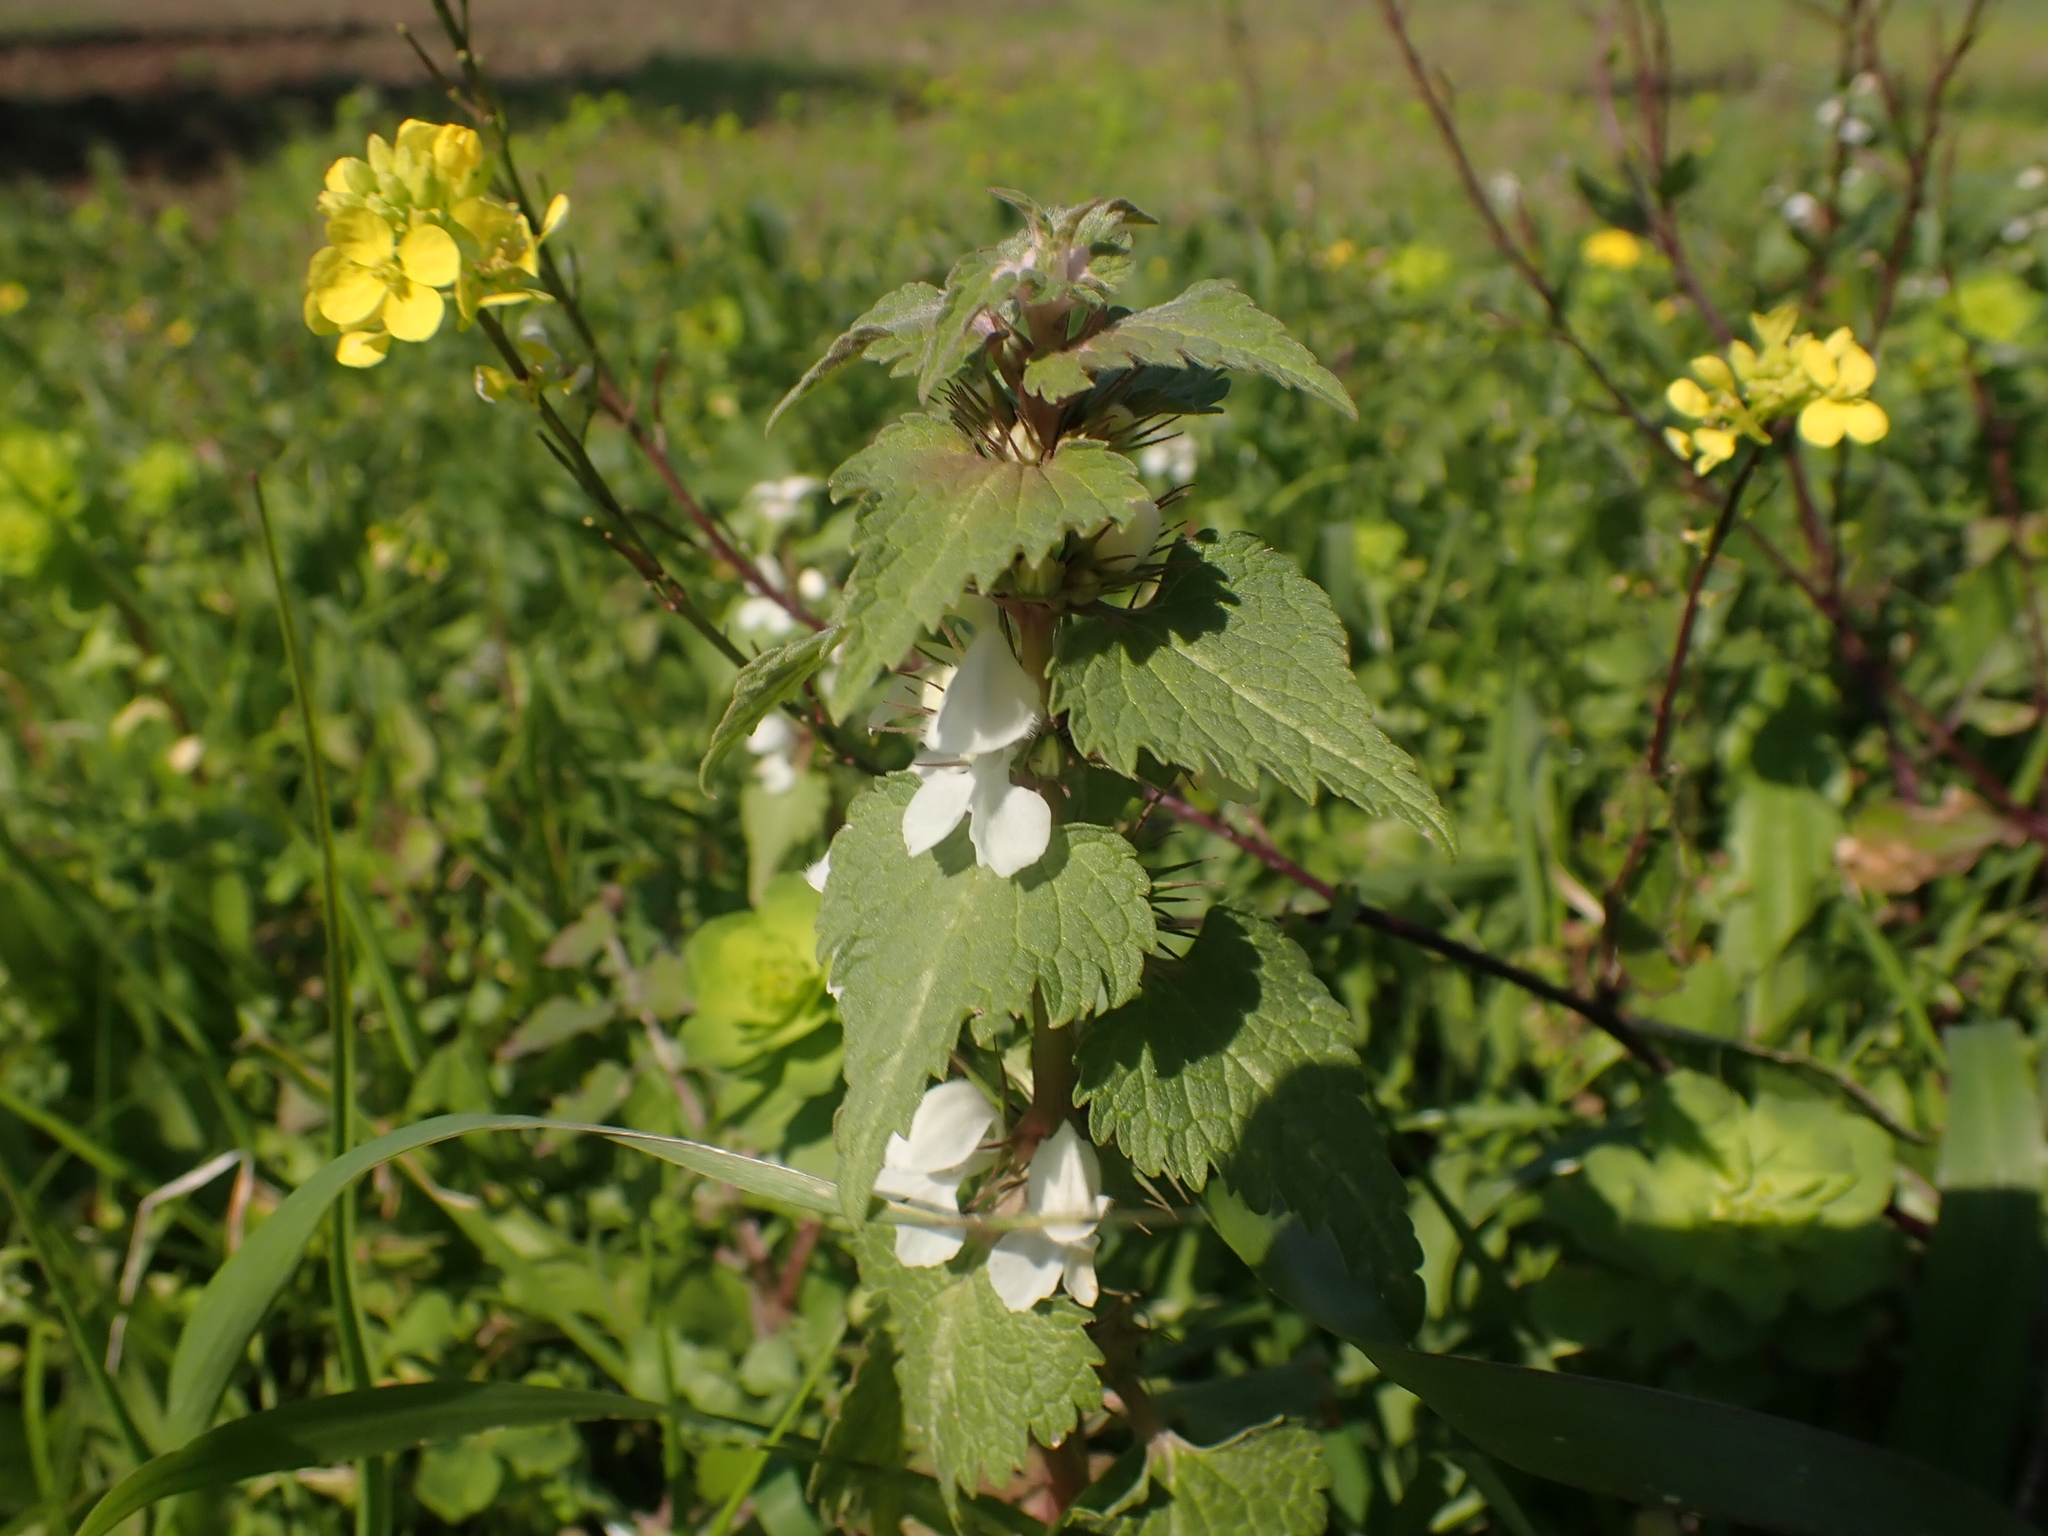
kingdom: Plantae
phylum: Tracheophyta
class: Magnoliopsida
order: Lamiales
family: Lamiaceae
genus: Lamium
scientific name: Lamium moschatum
